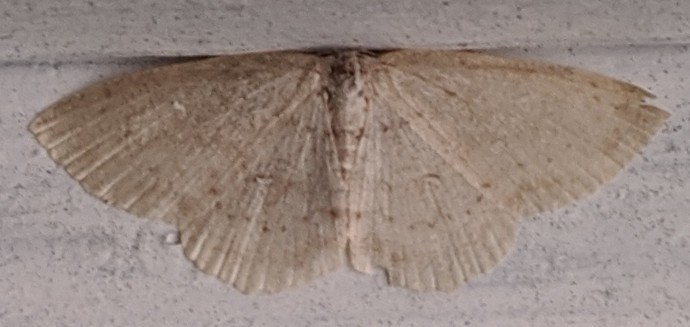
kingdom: Animalia
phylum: Arthropoda
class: Insecta
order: Lepidoptera
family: Geometridae
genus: Cyclophora
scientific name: Cyclophora pendulinaria
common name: Sweet fern geometer
